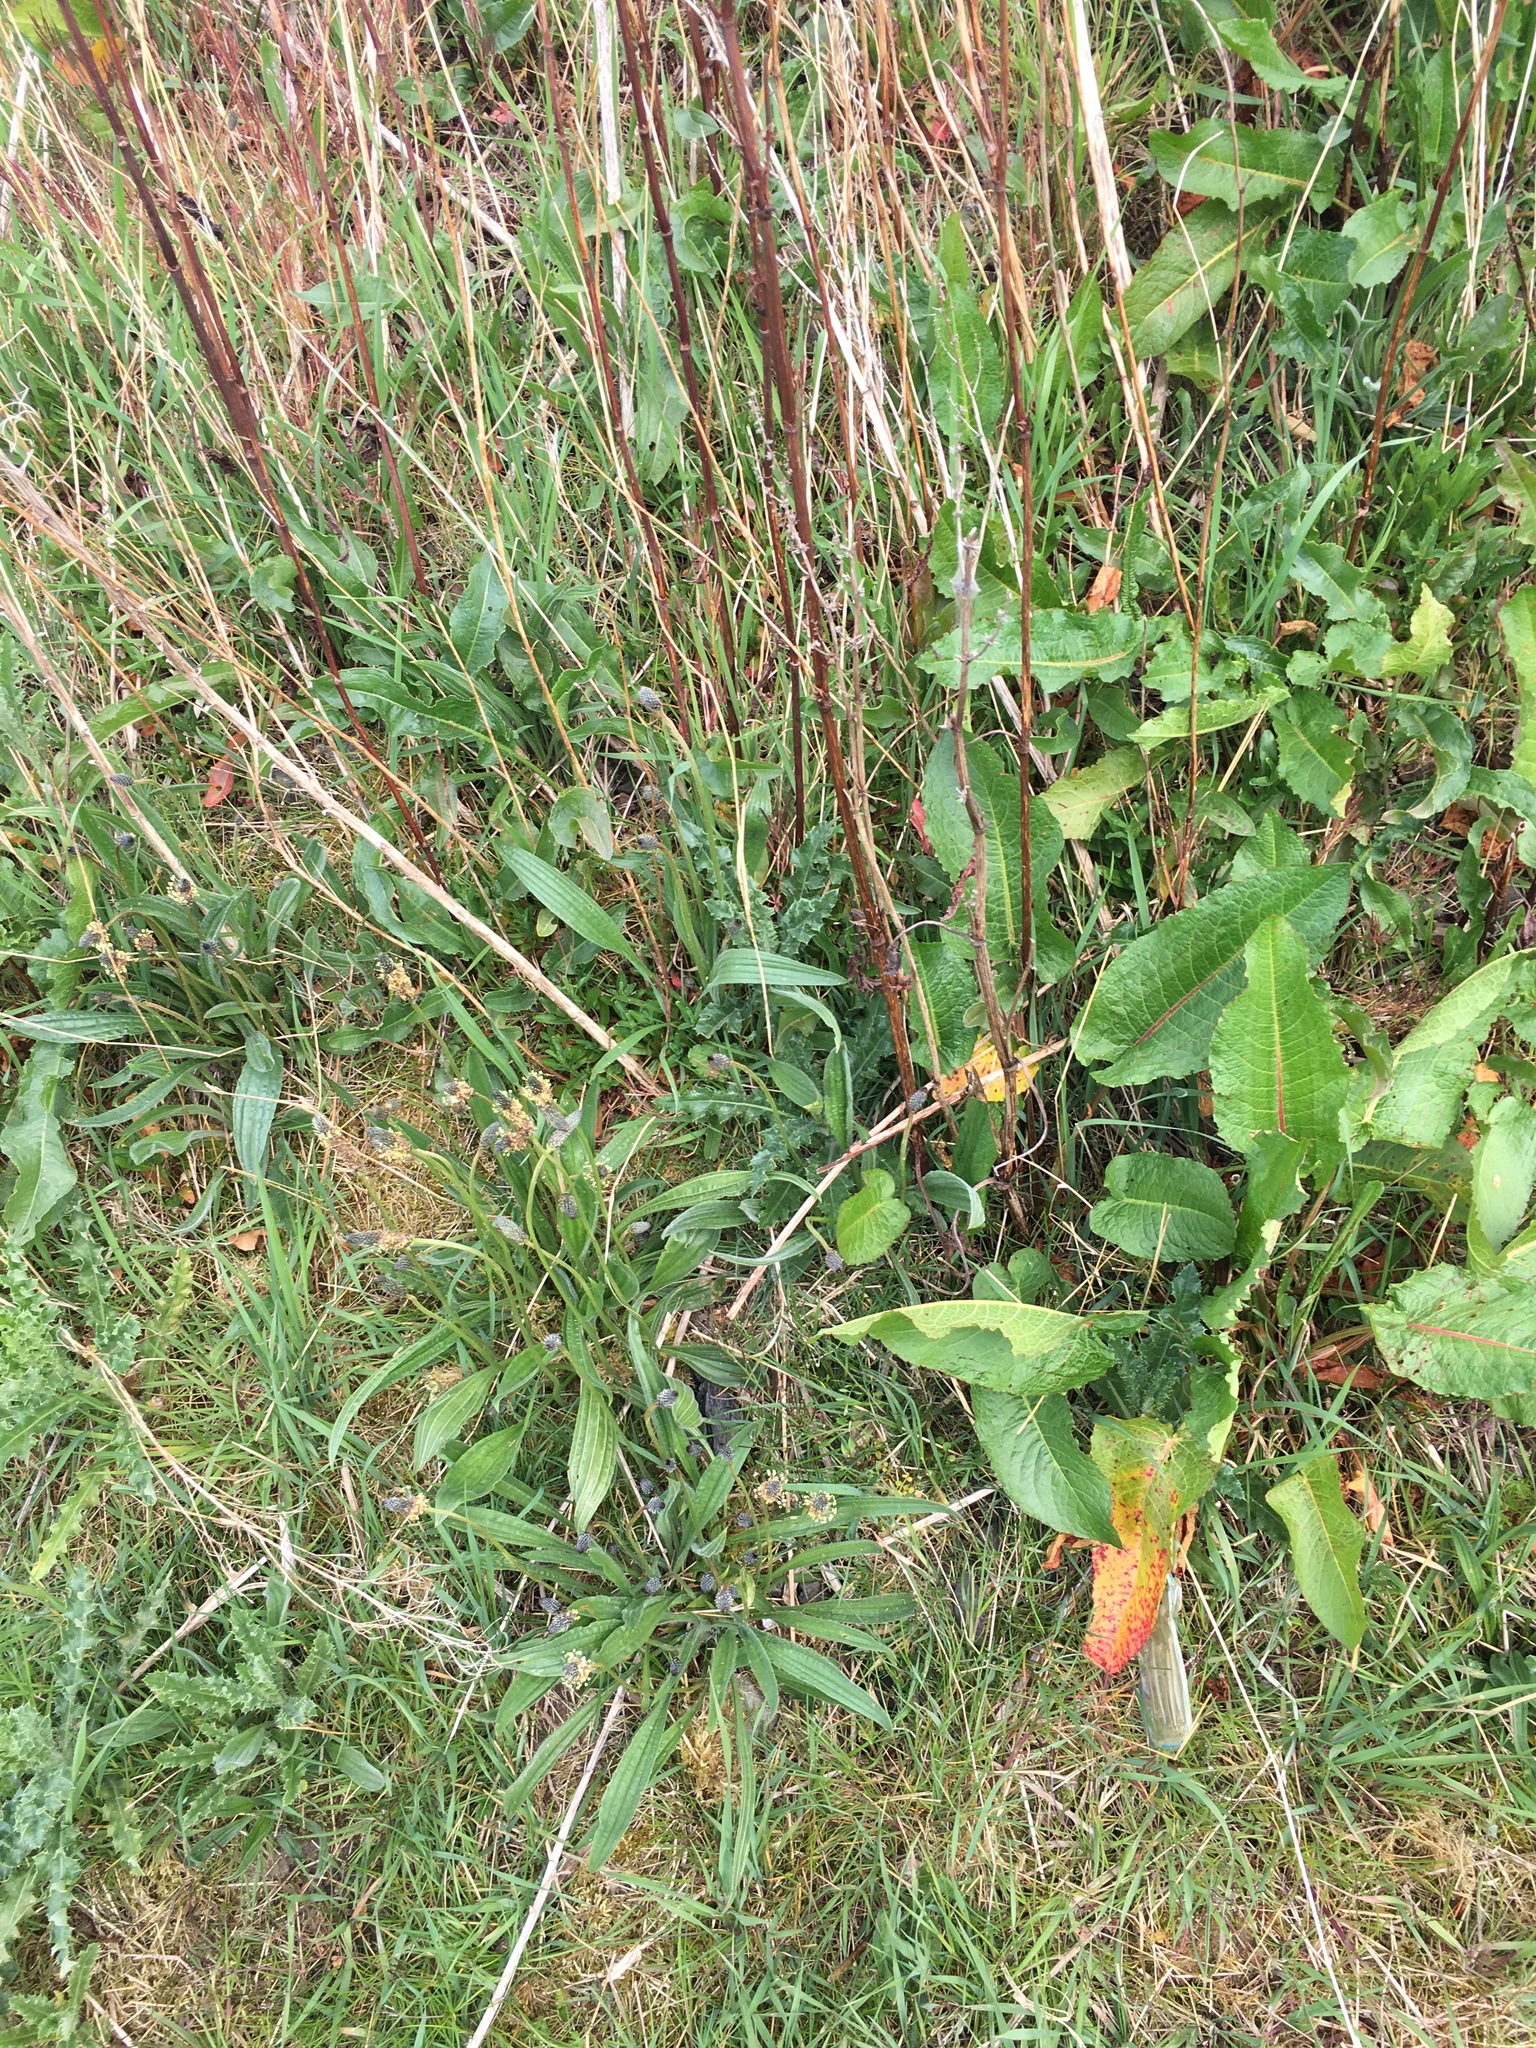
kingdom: Plantae
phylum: Tracheophyta
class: Magnoliopsida
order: Caryophyllales
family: Polygonaceae
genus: Rumex
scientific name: Rumex obtusifolius
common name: Bitter dock
